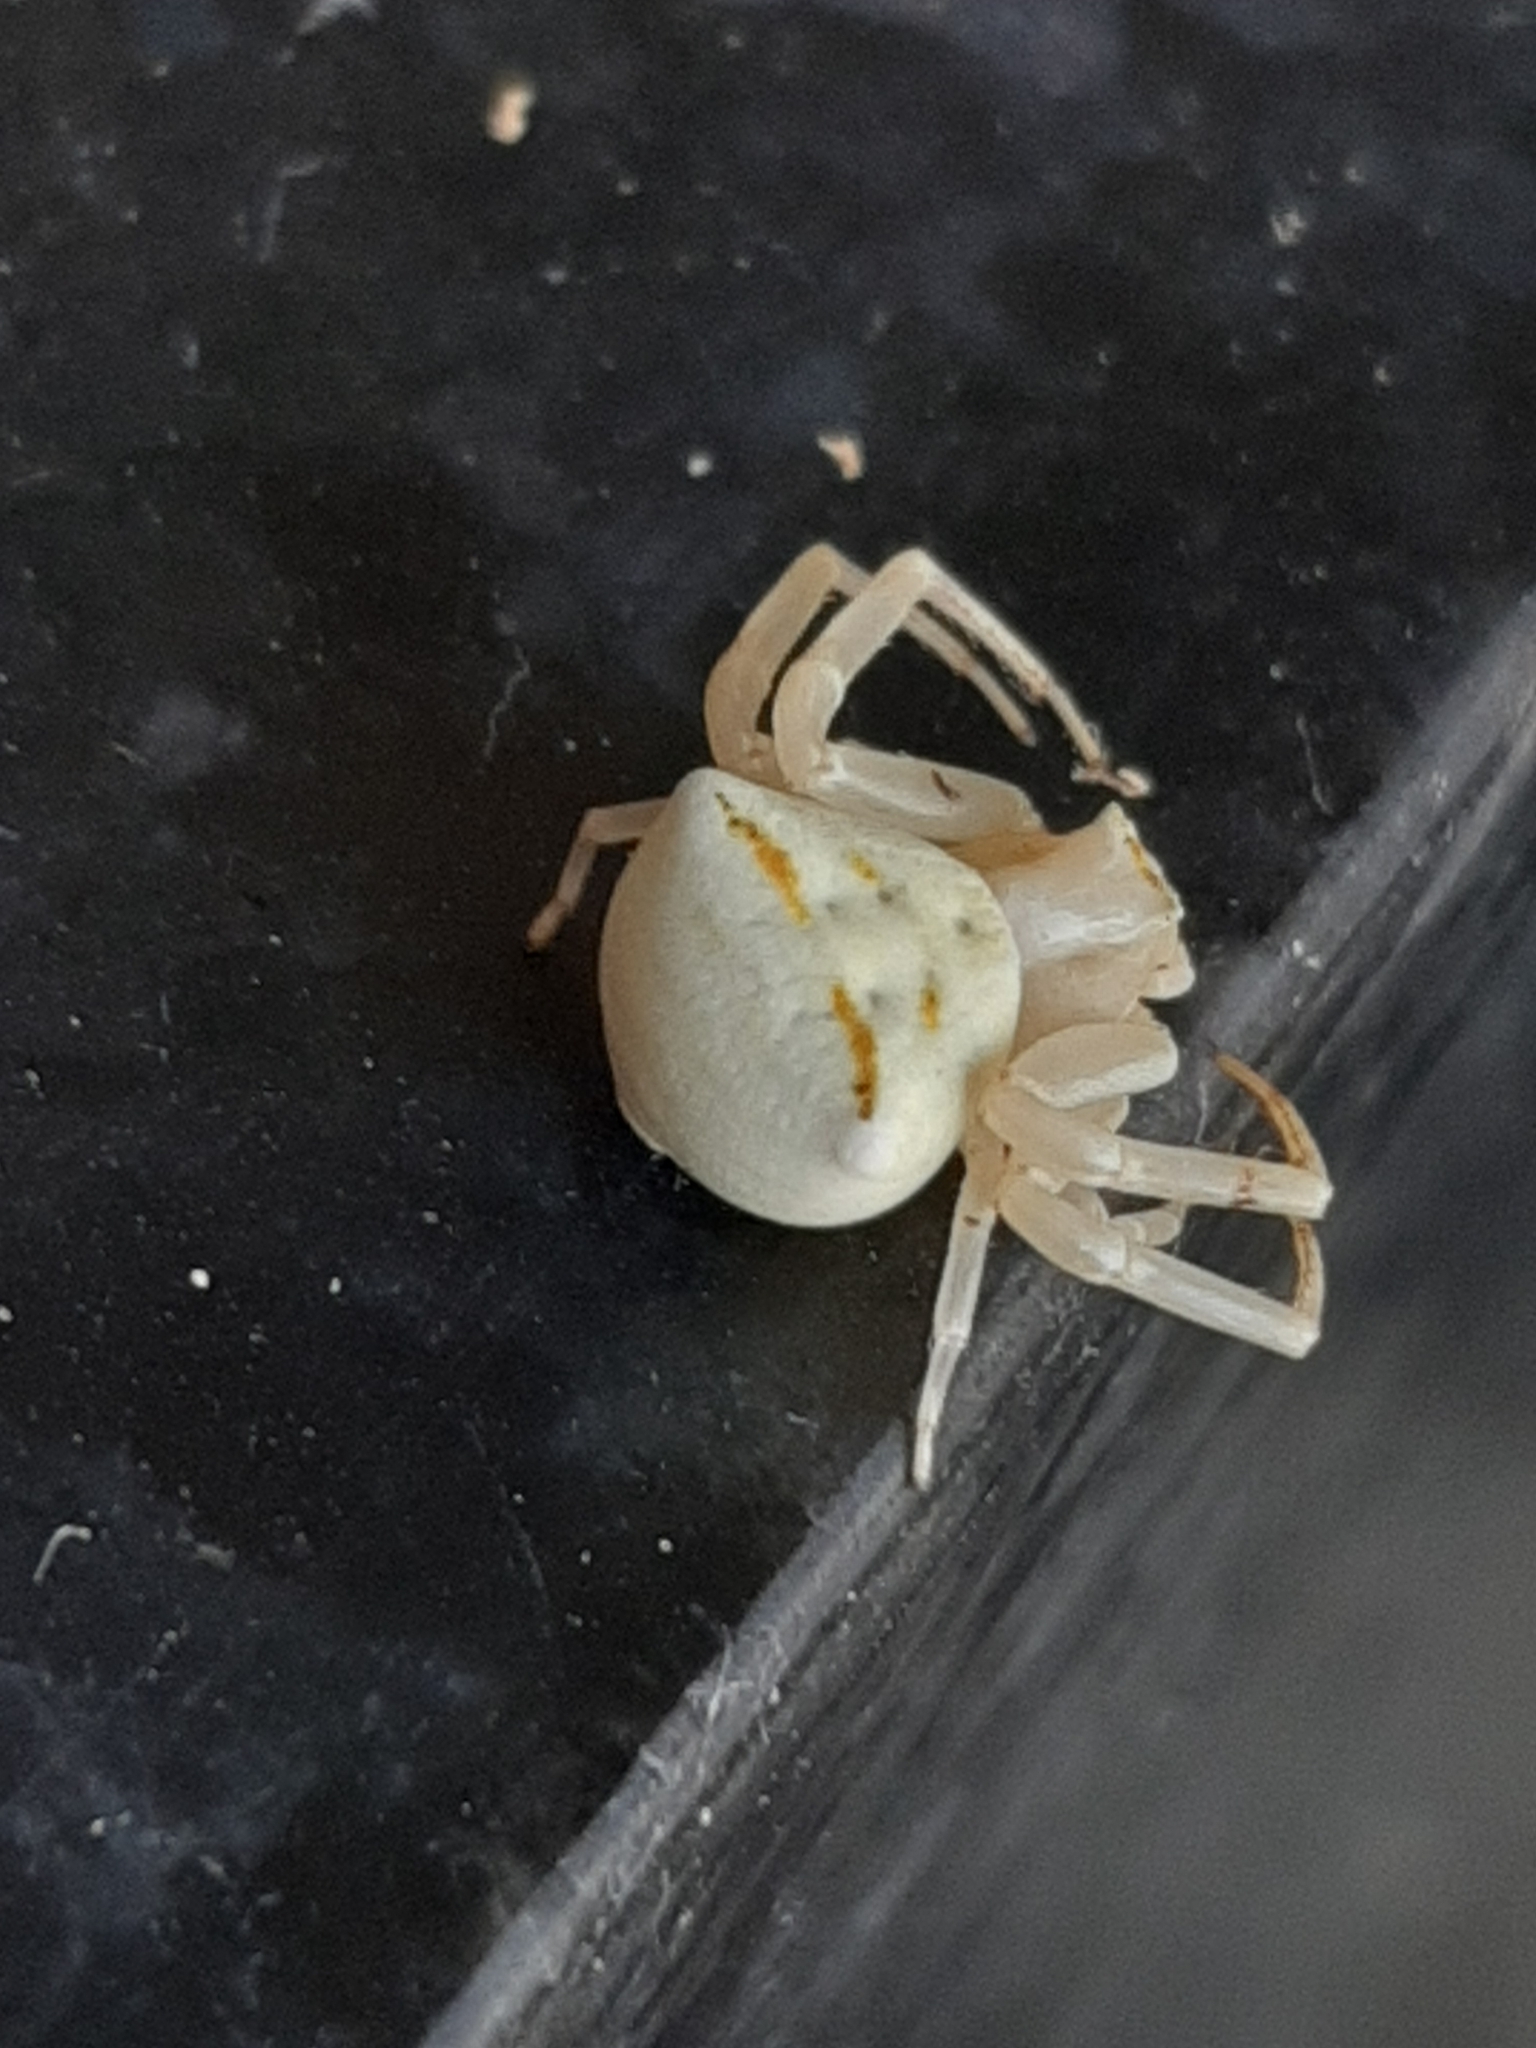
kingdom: Animalia
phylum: Arthropoda
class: Arachnida
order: Araneae
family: Thomisidae
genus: Thomisus
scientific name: Thomisus onustus
